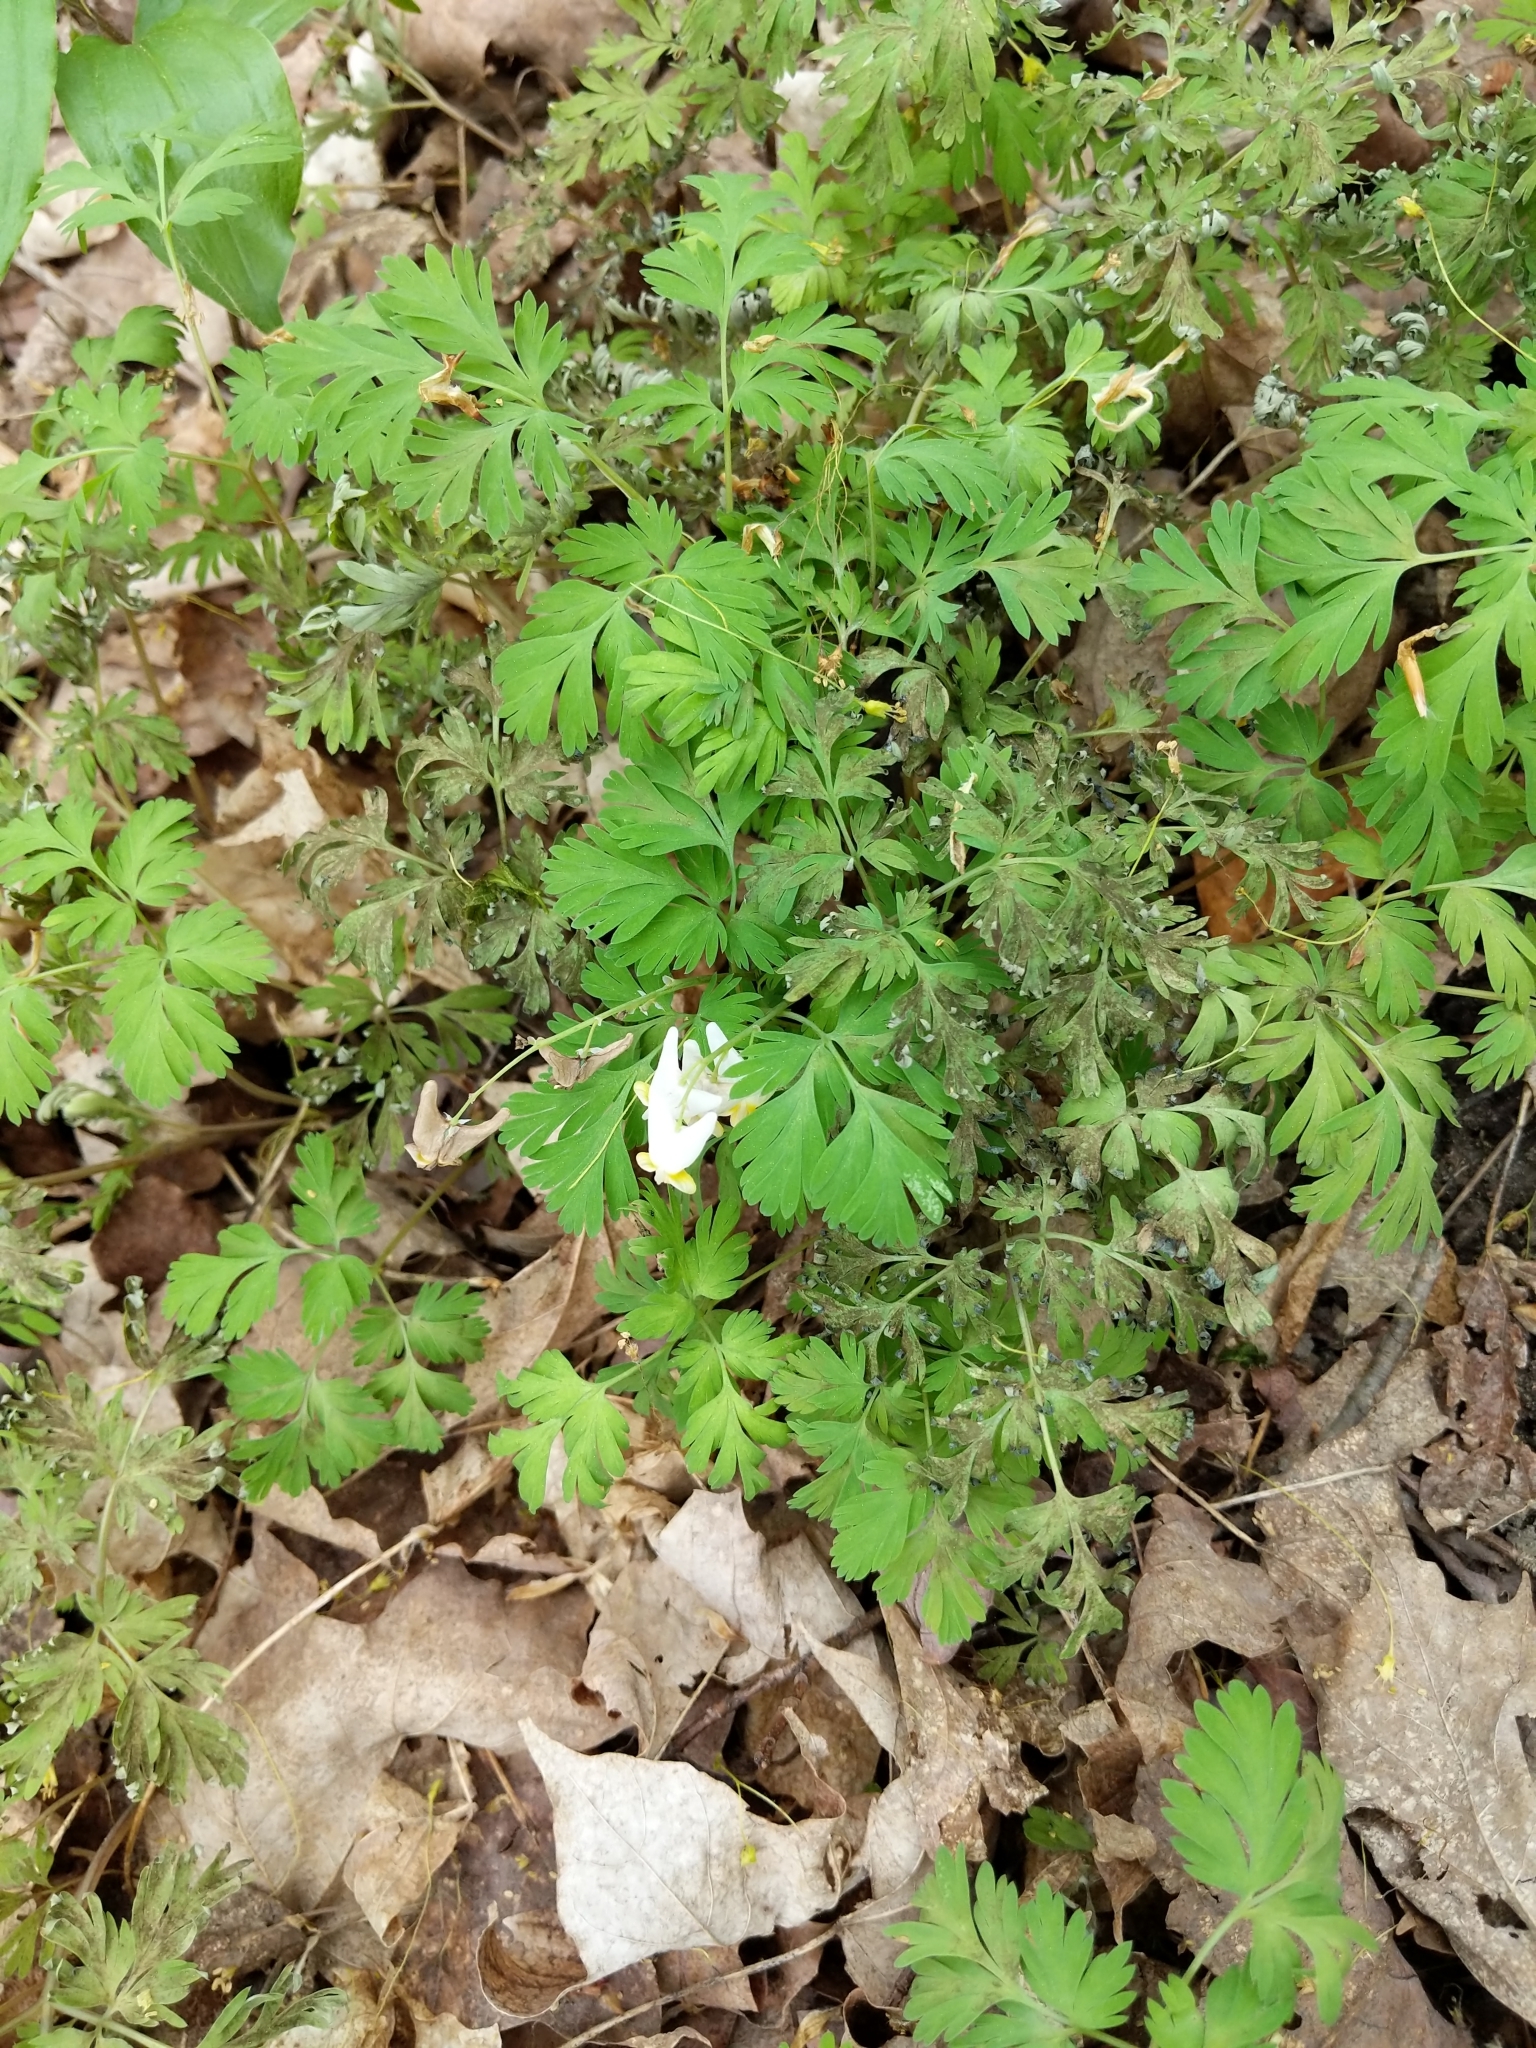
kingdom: Plantae
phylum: Tracheophyta
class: Magnoliopsida
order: Ranunculales
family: Papaveraceae
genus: Dicentra
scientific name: Dicentra cucullaria
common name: Dutchman's breeches
